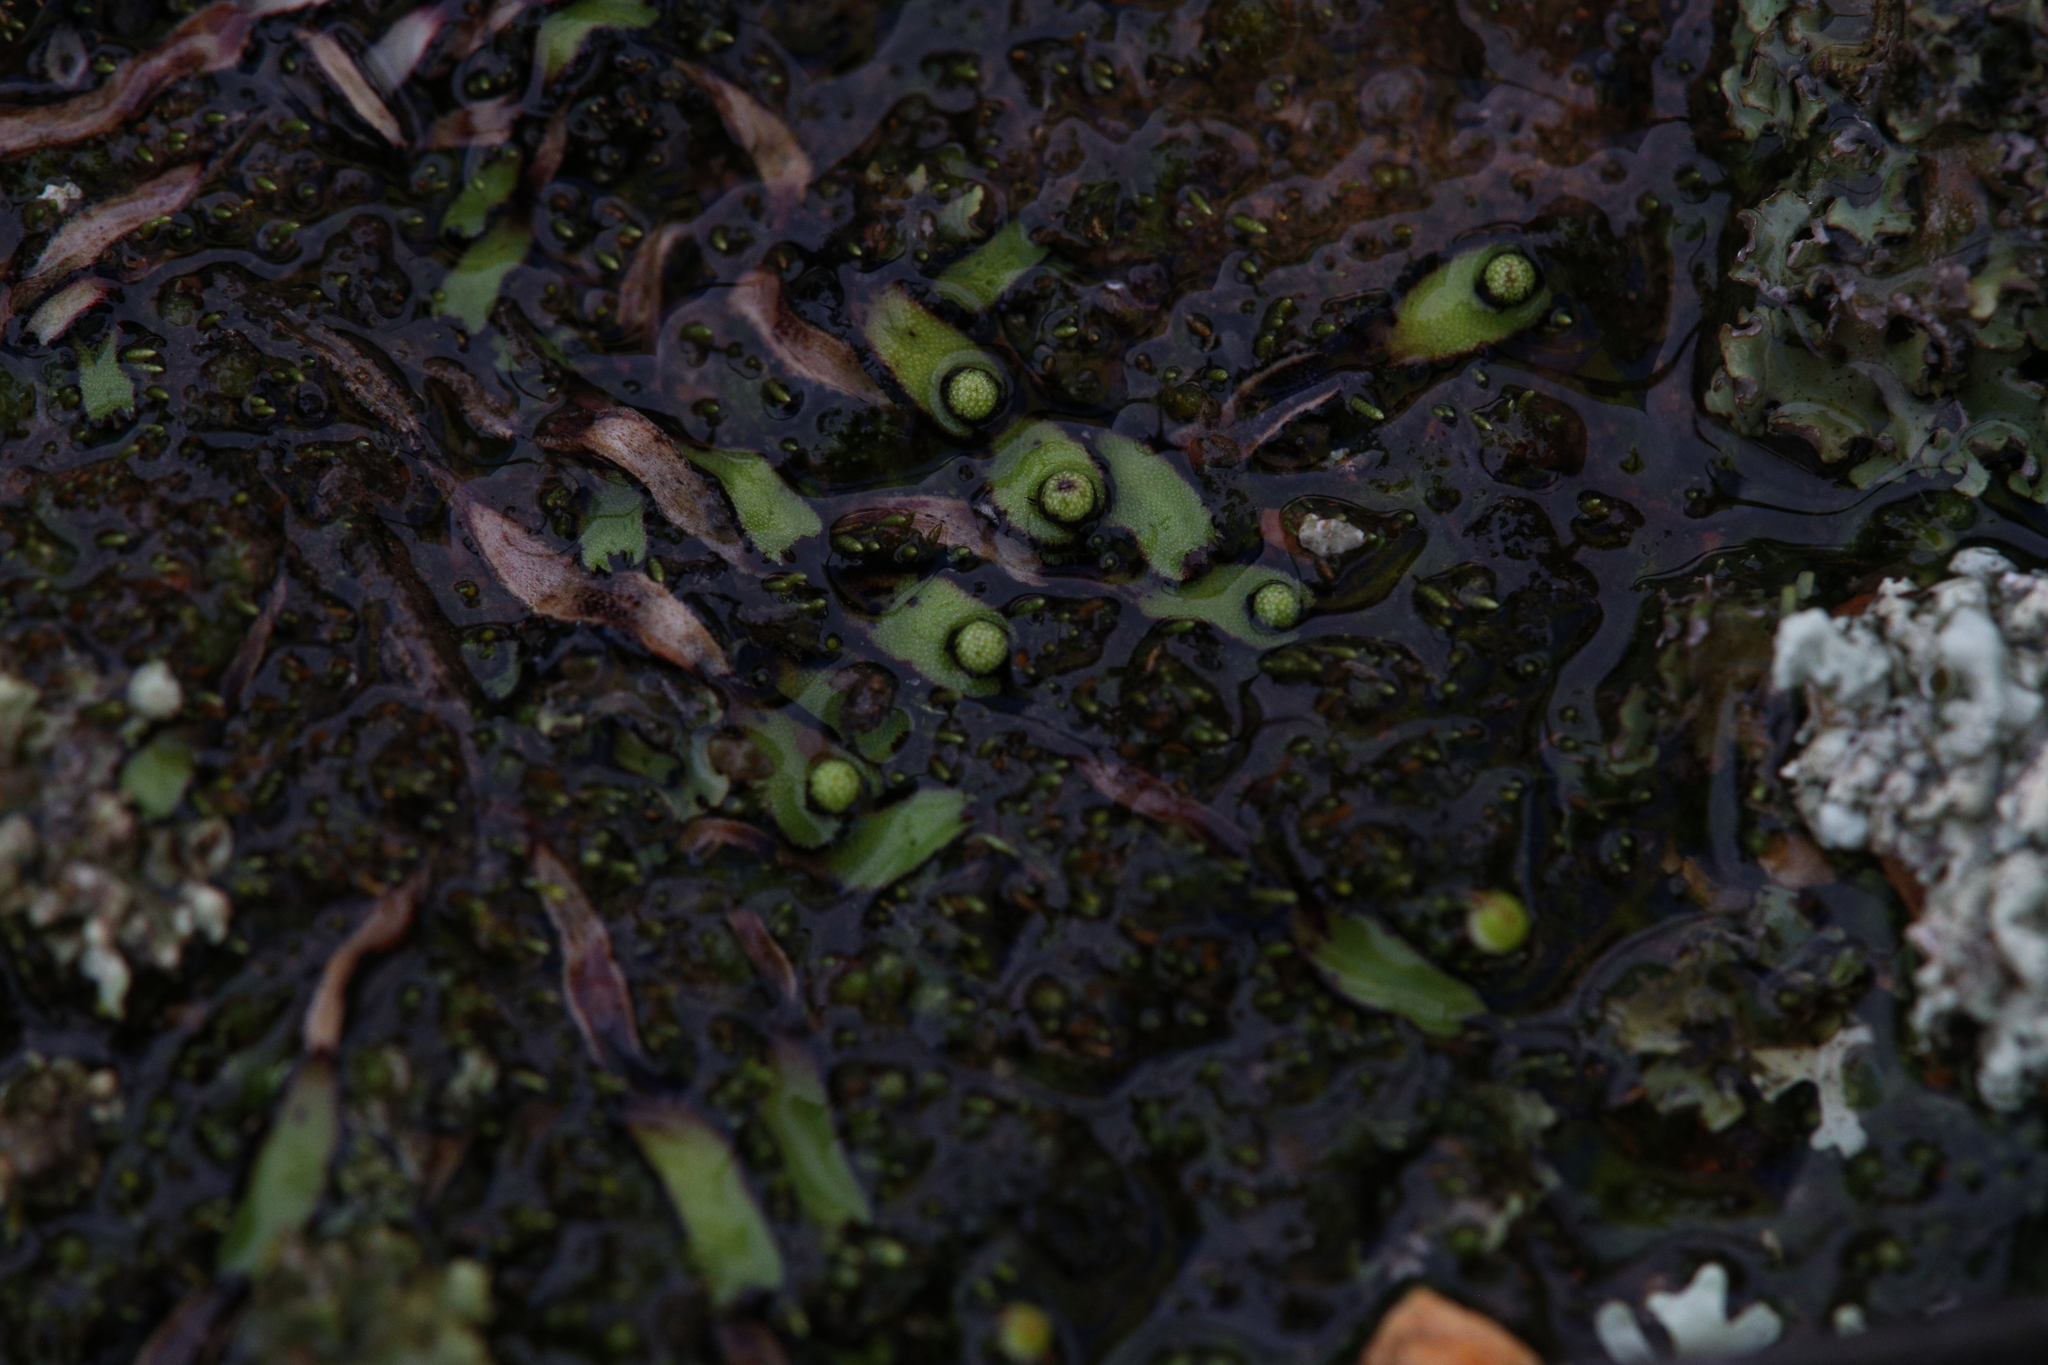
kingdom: Plantae
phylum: Marchantiophyta
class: Marchantiopsida
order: Marchantiales
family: Aytoniaceae
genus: Asterella
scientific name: Asterella drummondii
